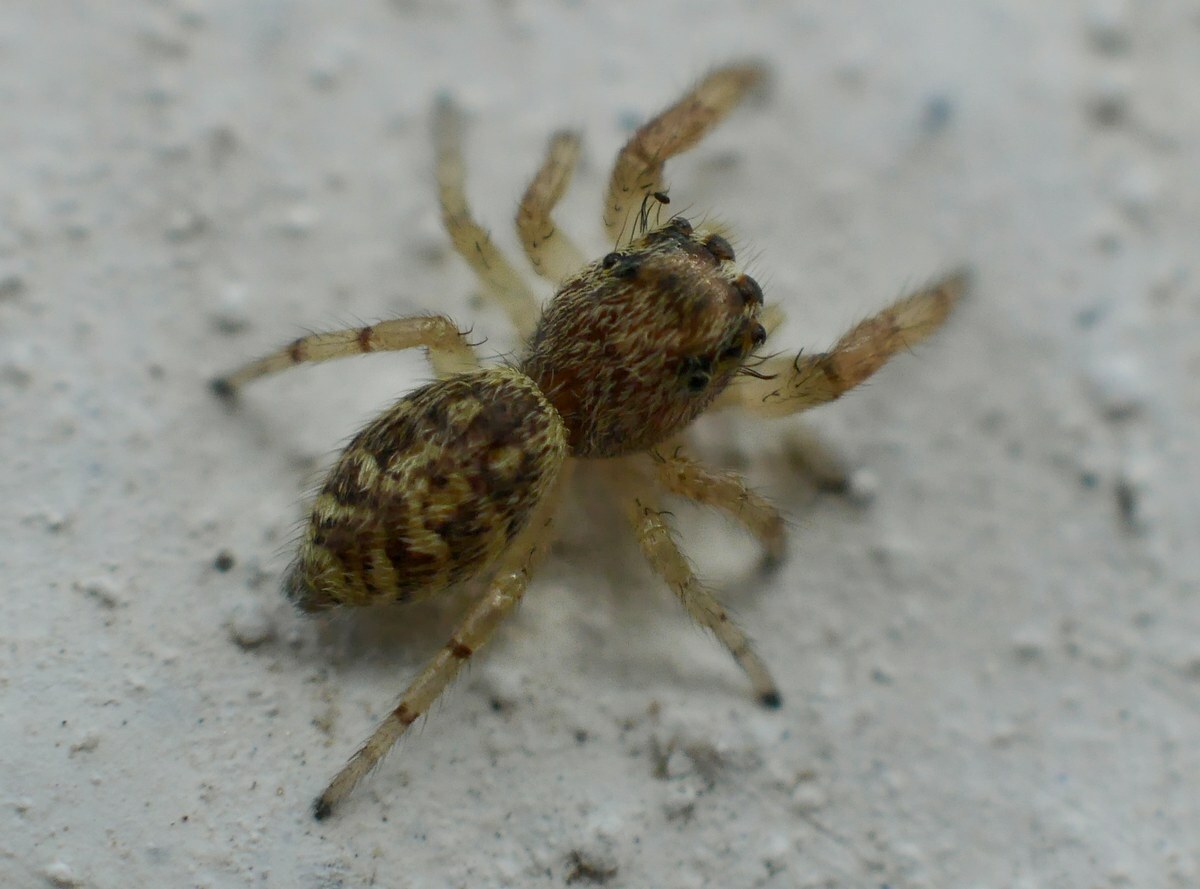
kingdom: Animalia
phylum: Arthropoda
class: Arachnida
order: Araneae
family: Salticidae
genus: Macaroeris
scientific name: Macaroeris nidicolens
